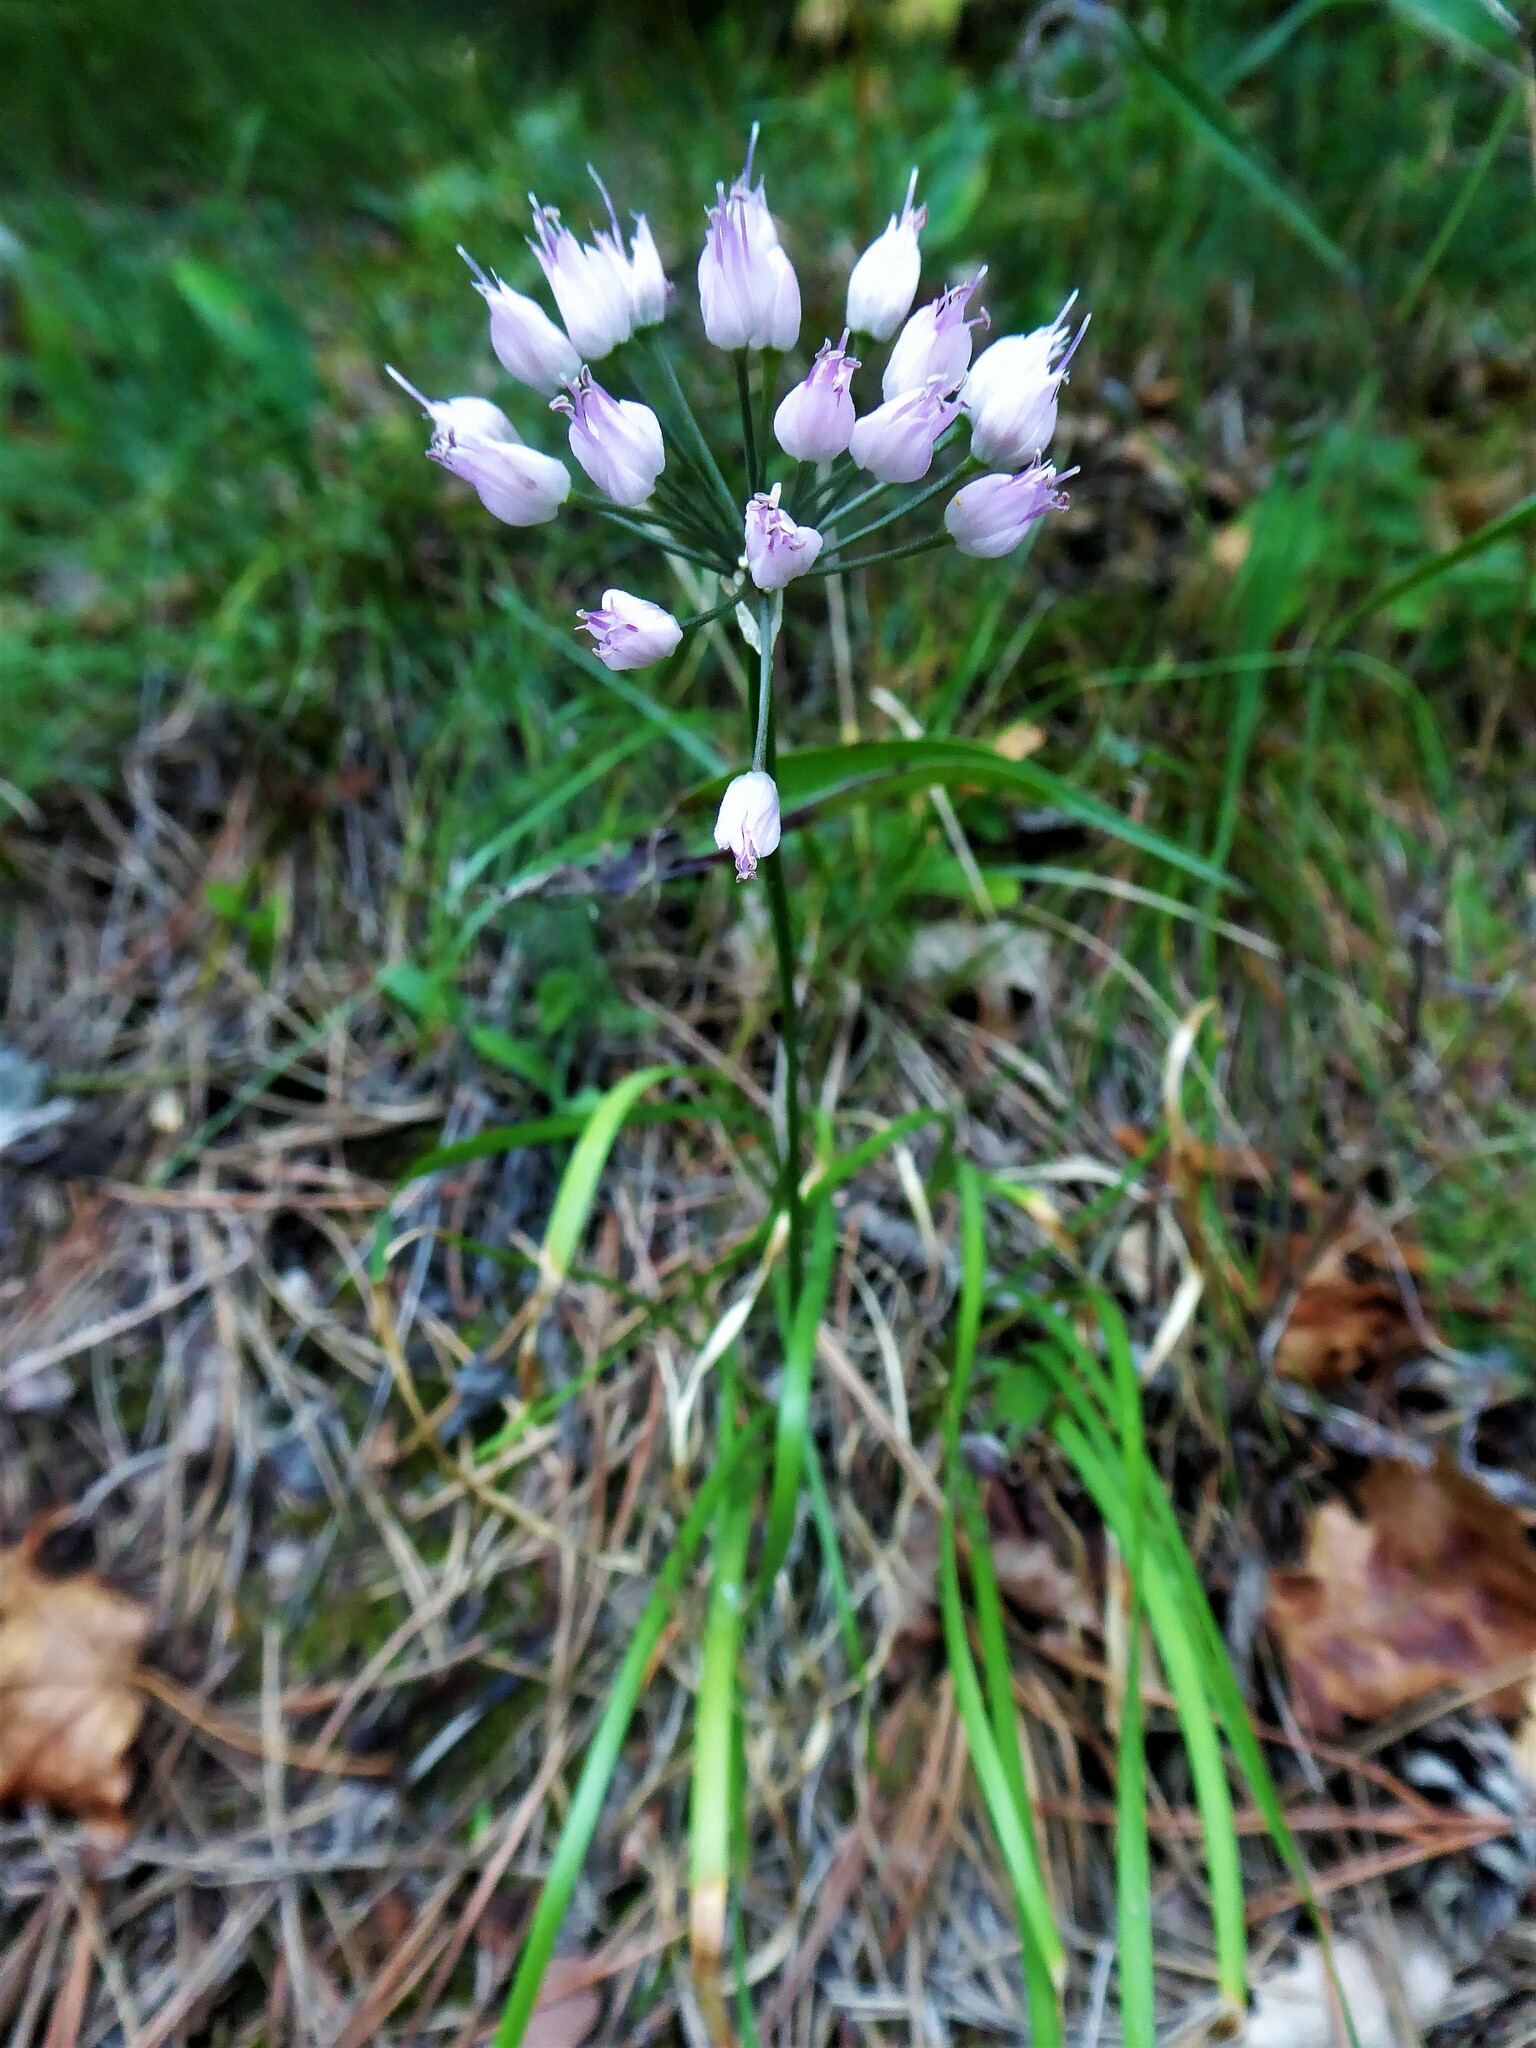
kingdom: Plantae
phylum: Tracheophyta
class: Liliopsida
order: Asparagales
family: Amaryllidaceae
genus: Allium
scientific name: Allium lusitanicum
